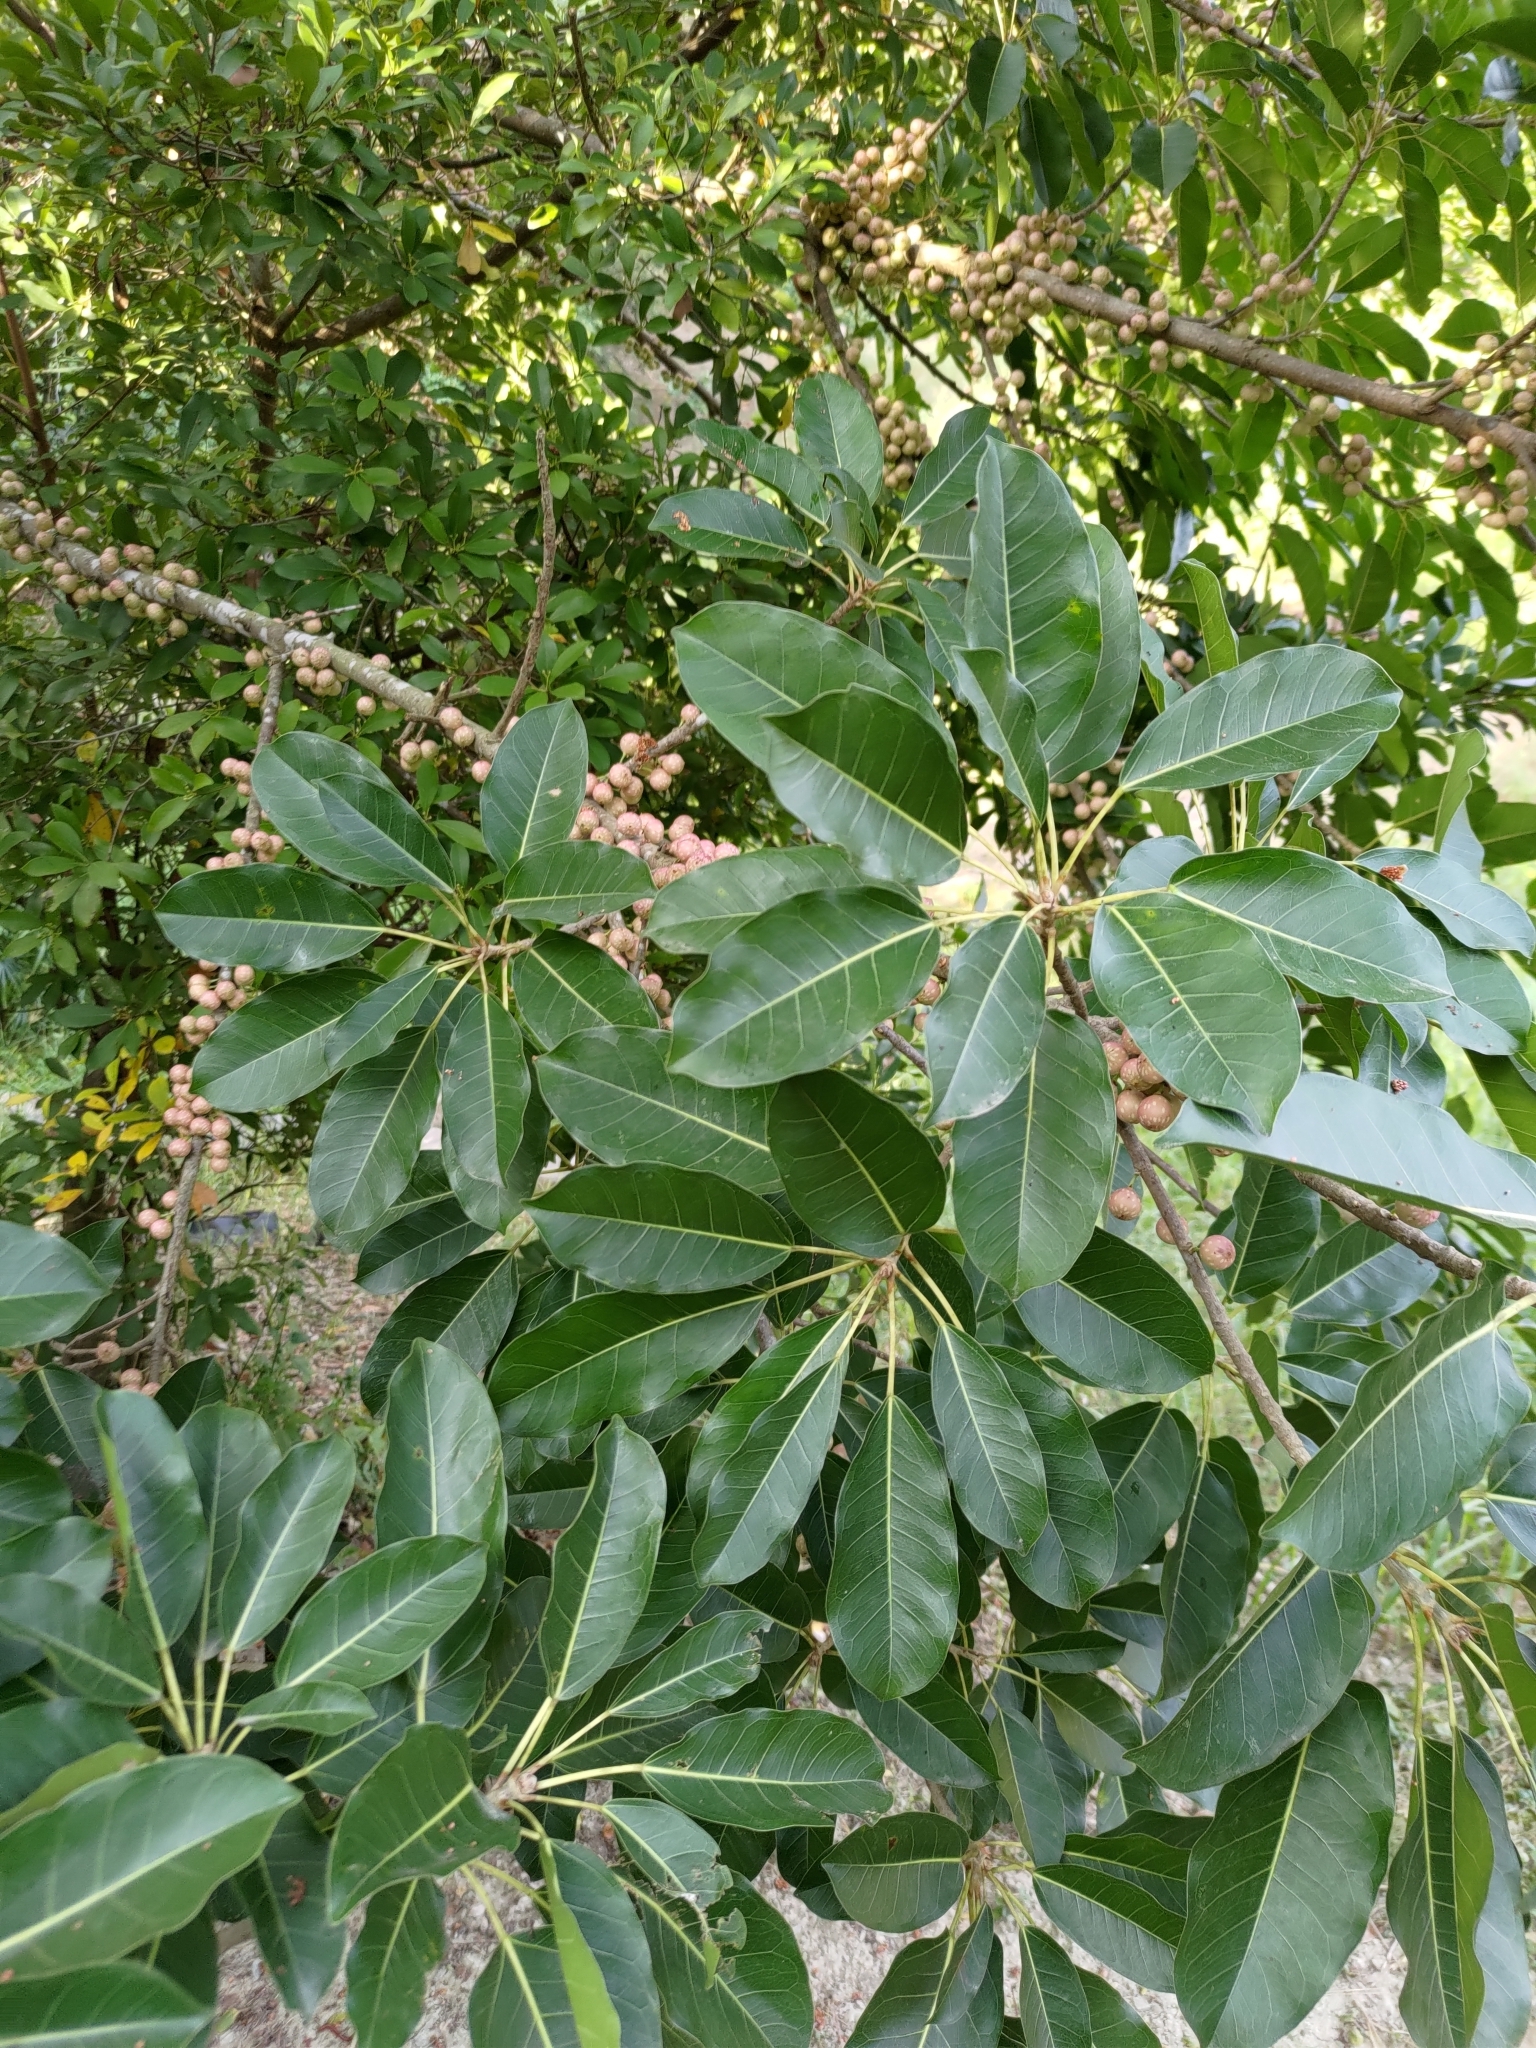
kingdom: Plantae
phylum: Tracheophyta
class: Magnoliopsida
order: Rosales
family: Moraceae
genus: Ficus
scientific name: Ficus subpisocarpa
